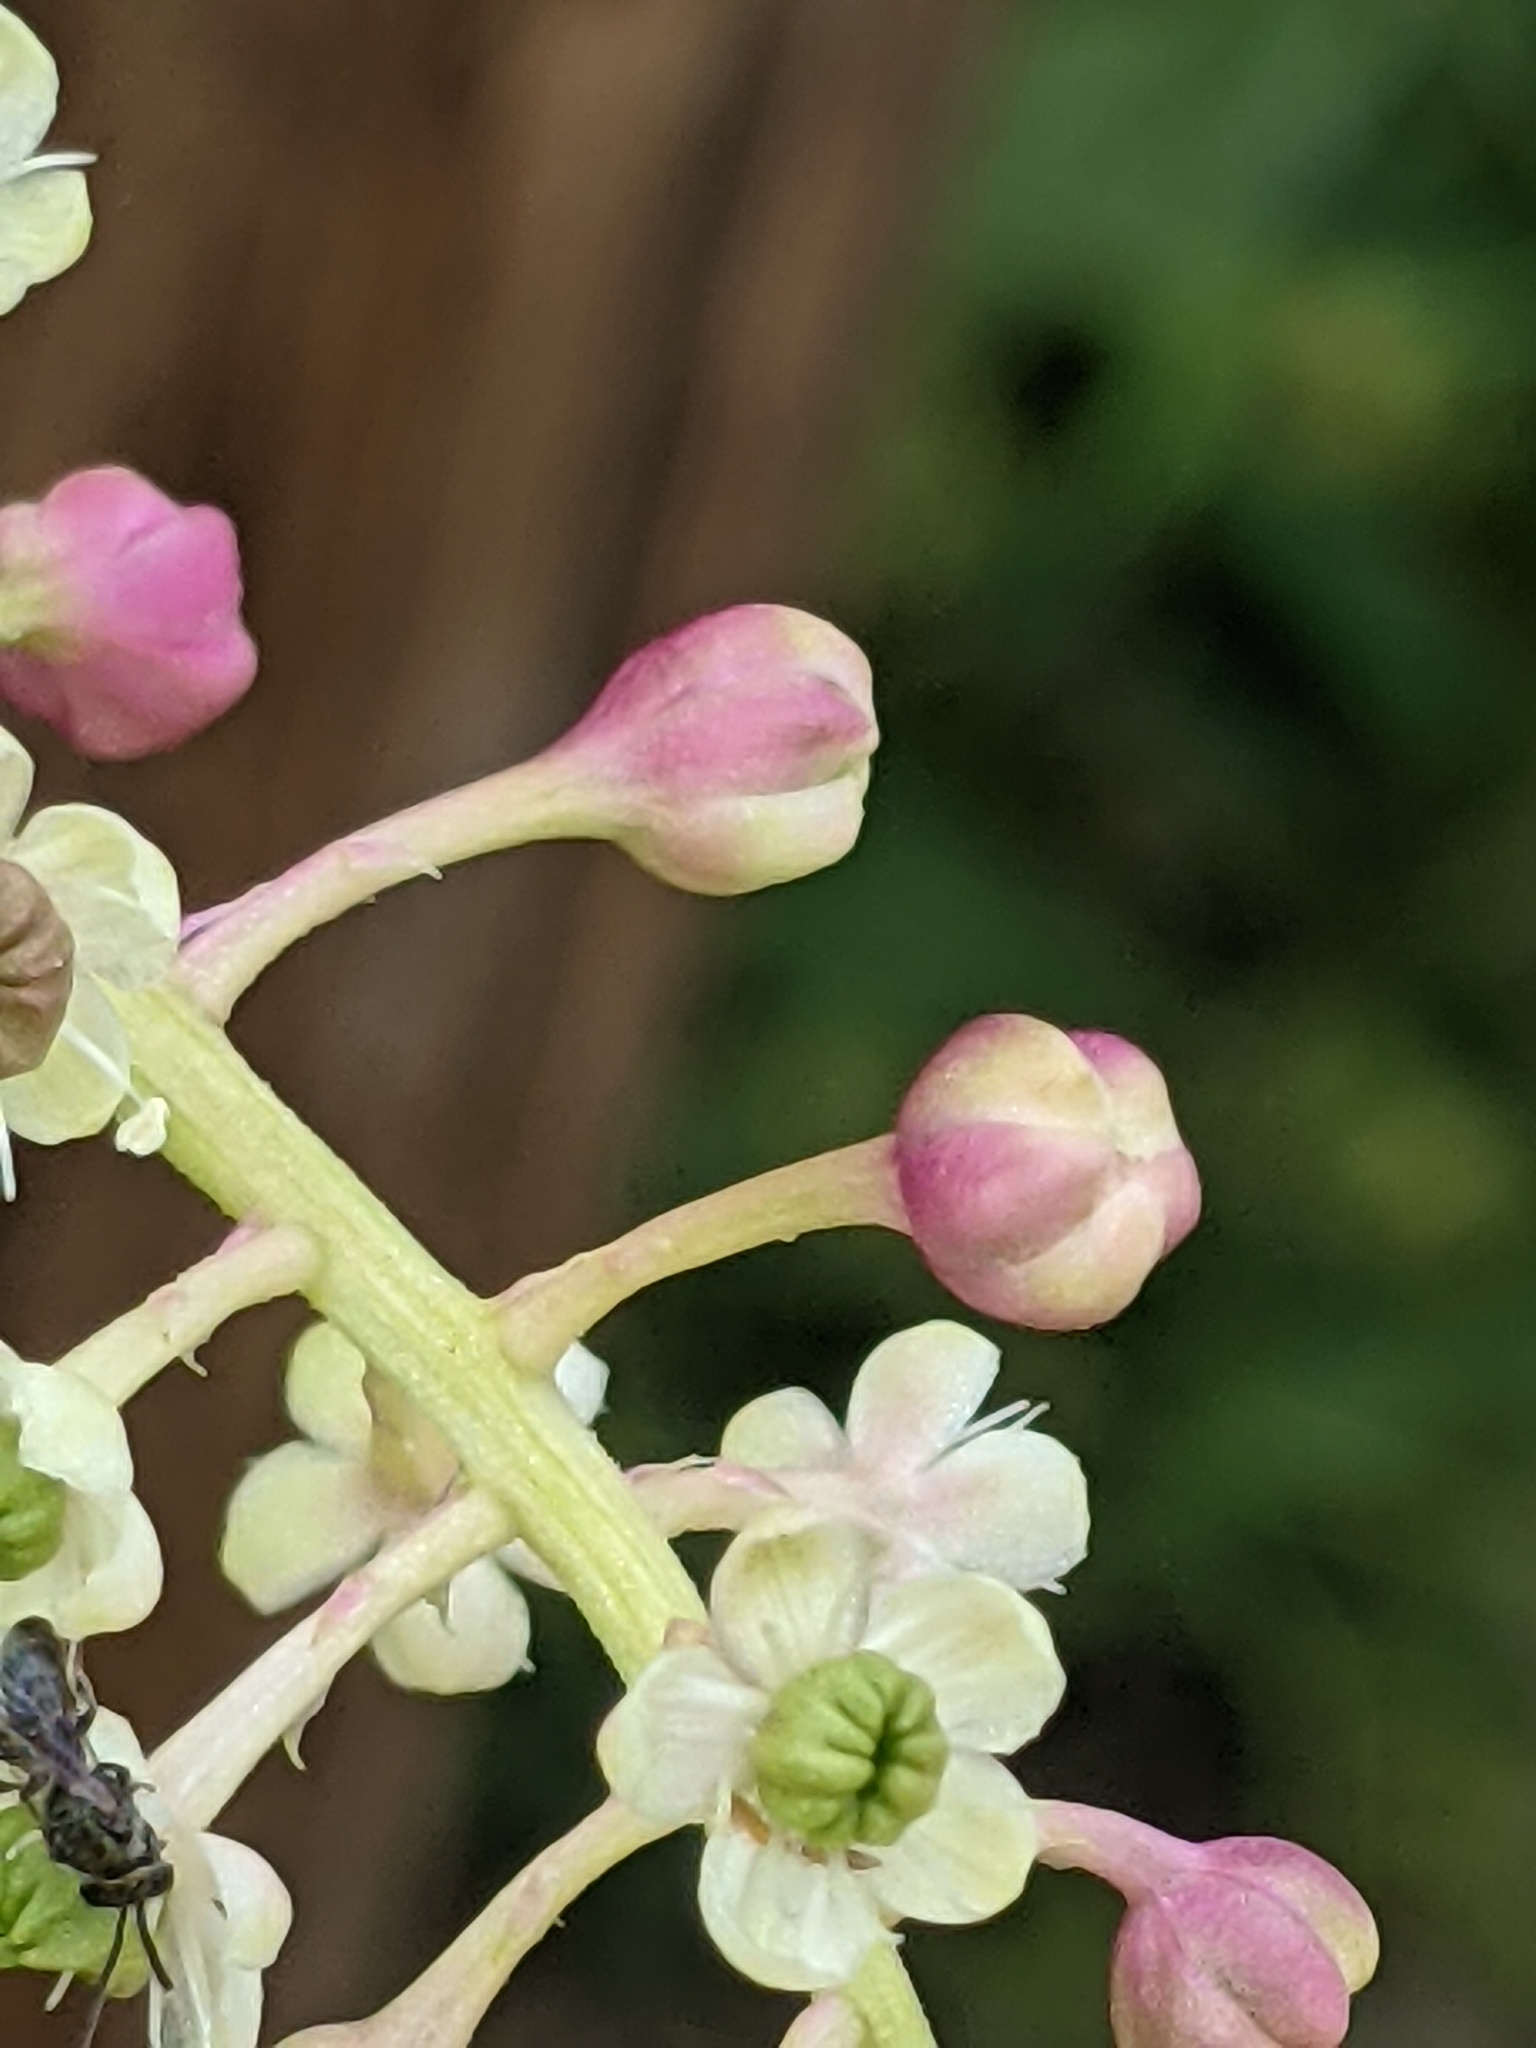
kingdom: Animalia
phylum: Arthropoda
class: Insecta
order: Hymenoptera
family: Halictidae
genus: Lasioglossum
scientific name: Lasioglossum
